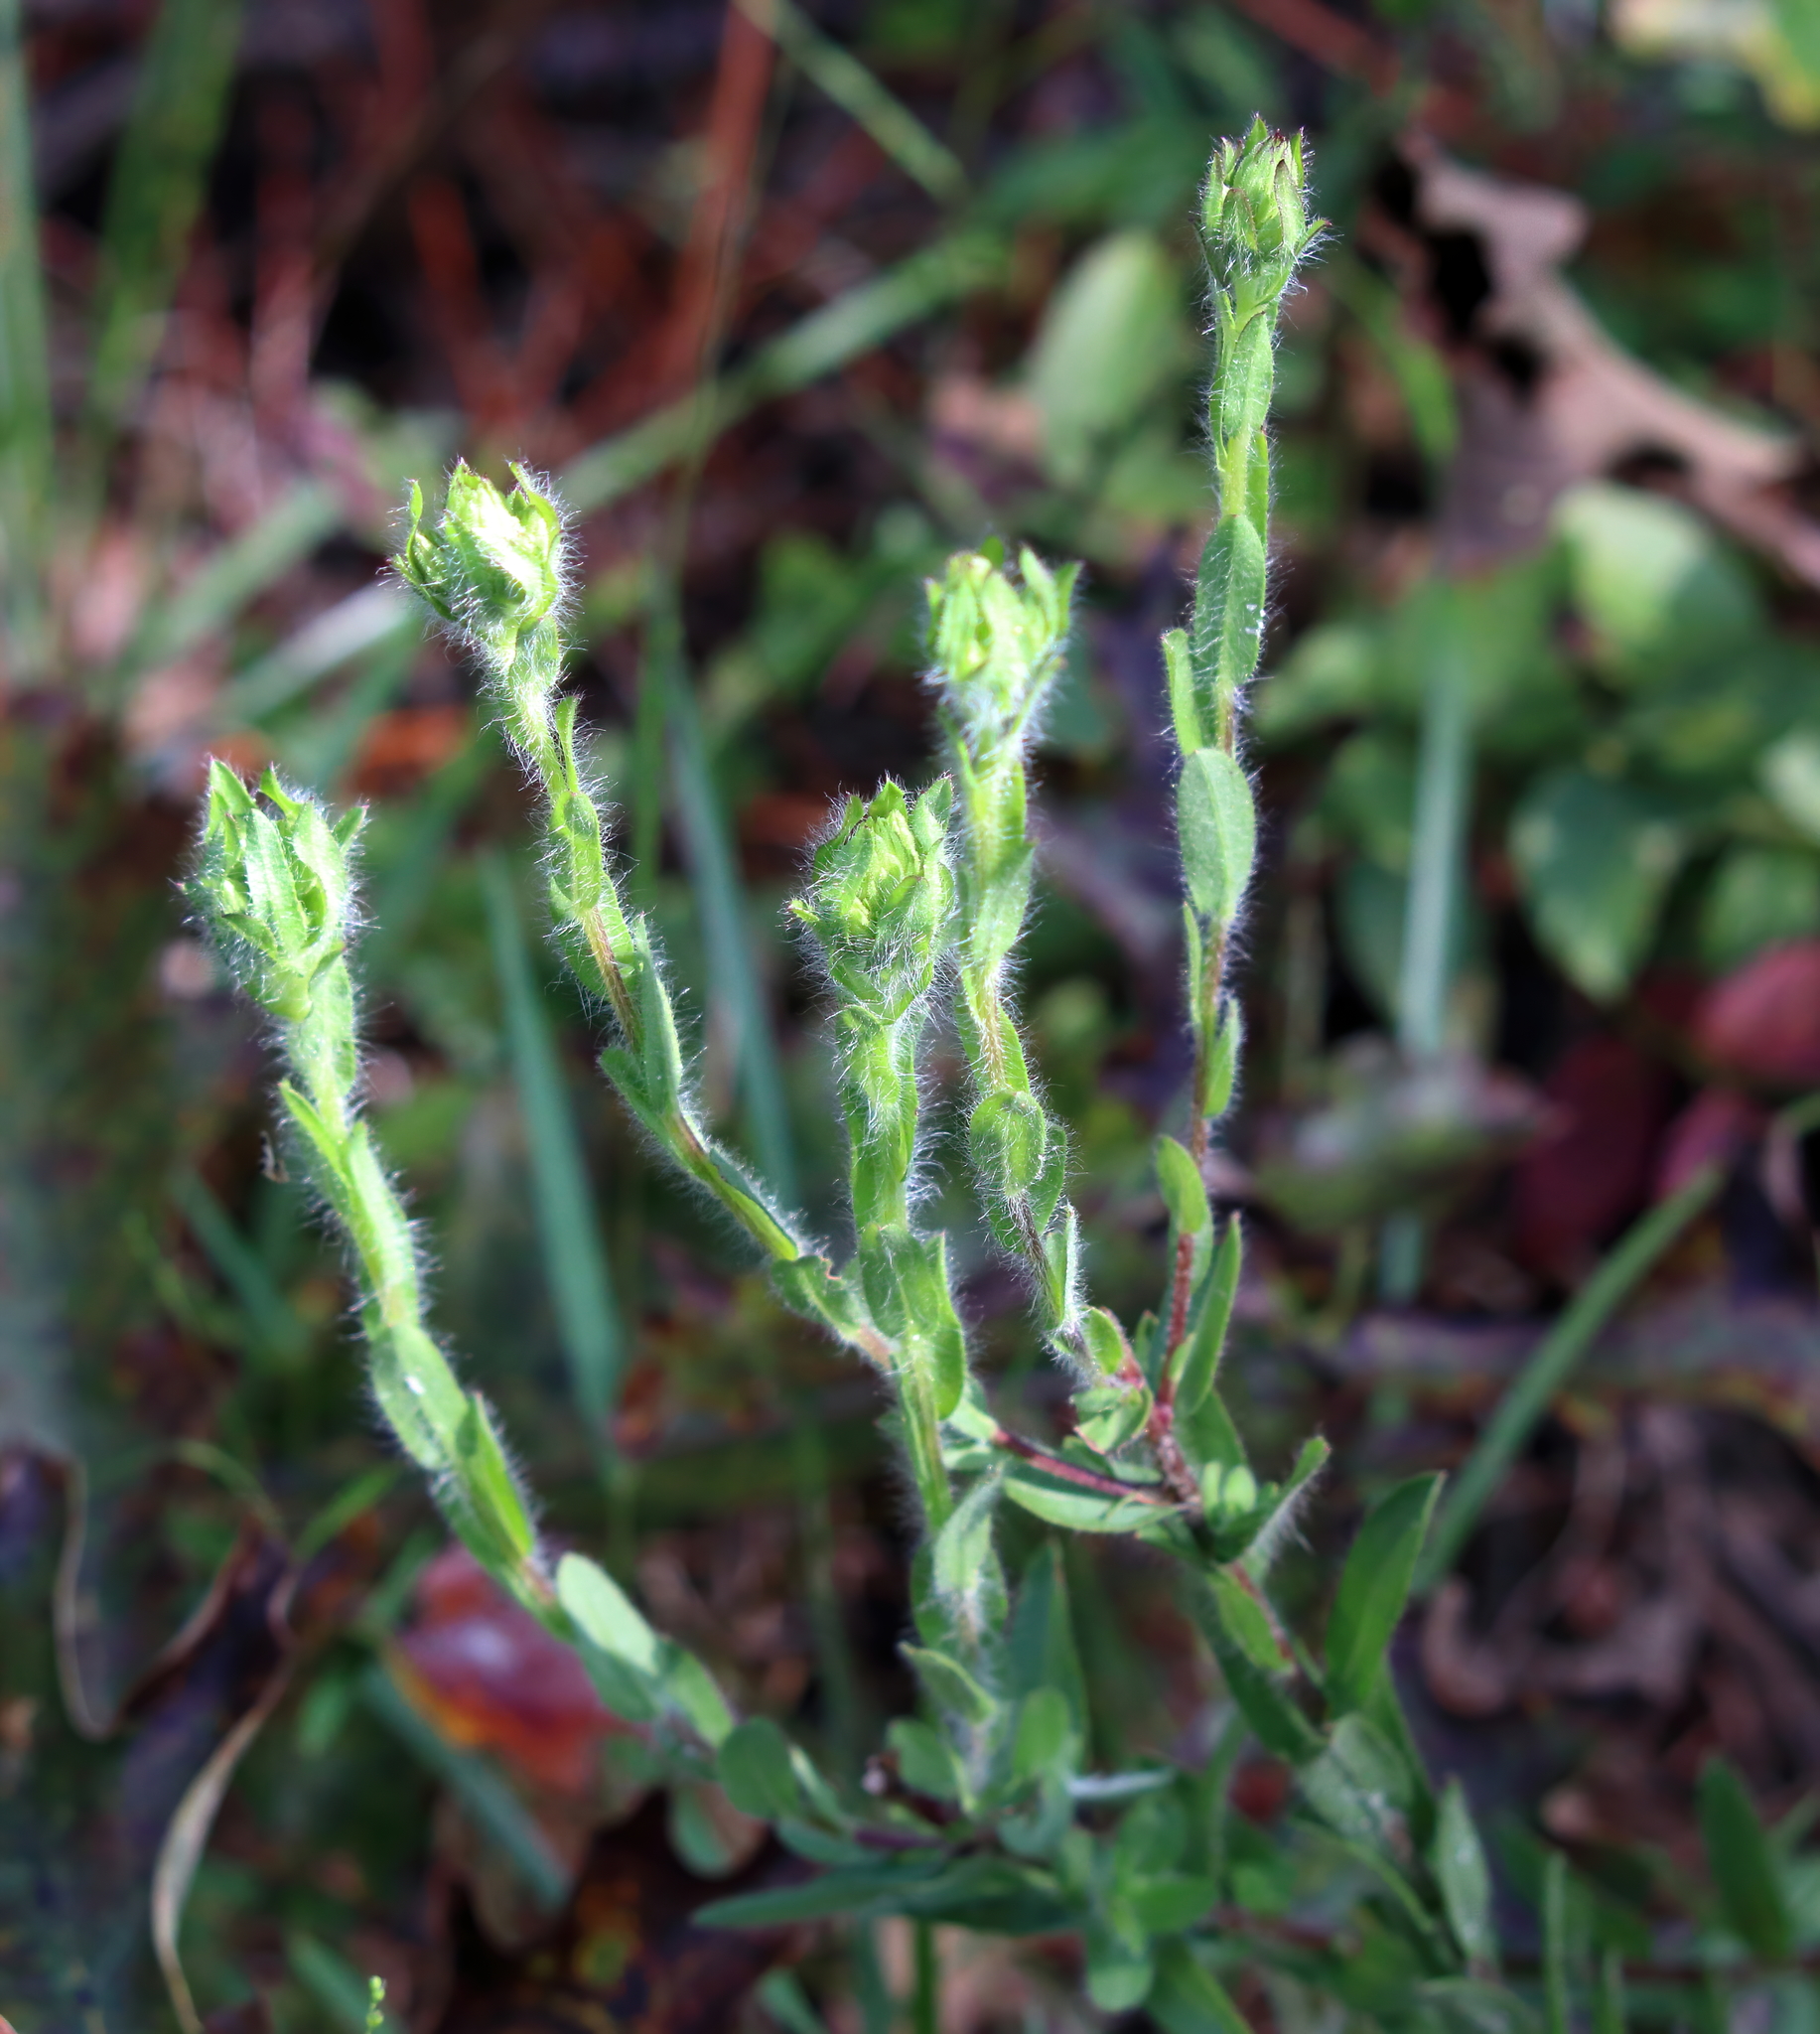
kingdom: Plantae
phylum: Tracheophyta
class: Magnoliopsida
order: Asterales
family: Asteraceae
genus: Chrysopsis
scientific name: Chrysopsis mariana
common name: Maryland golden-aster
